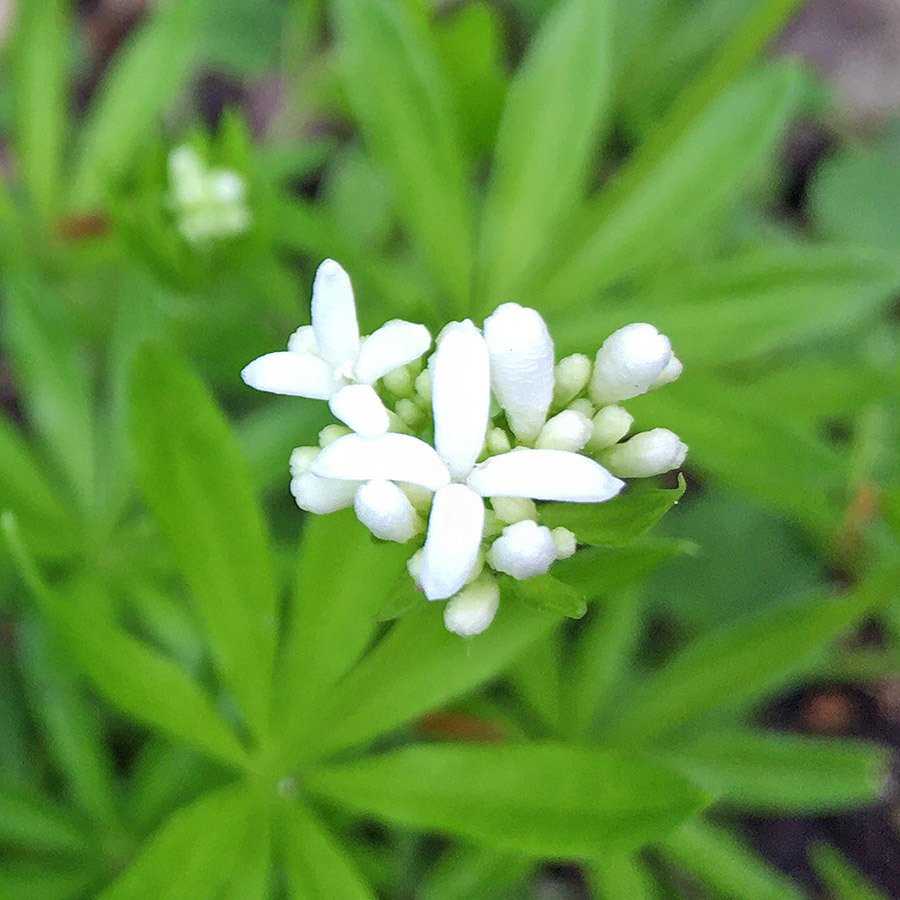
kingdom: Plantae
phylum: Tracheophyta
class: Magnoliopsida
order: Gentianales
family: Rubiaceae
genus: Galium
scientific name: Galium odoratum
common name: Sweet woodruff
